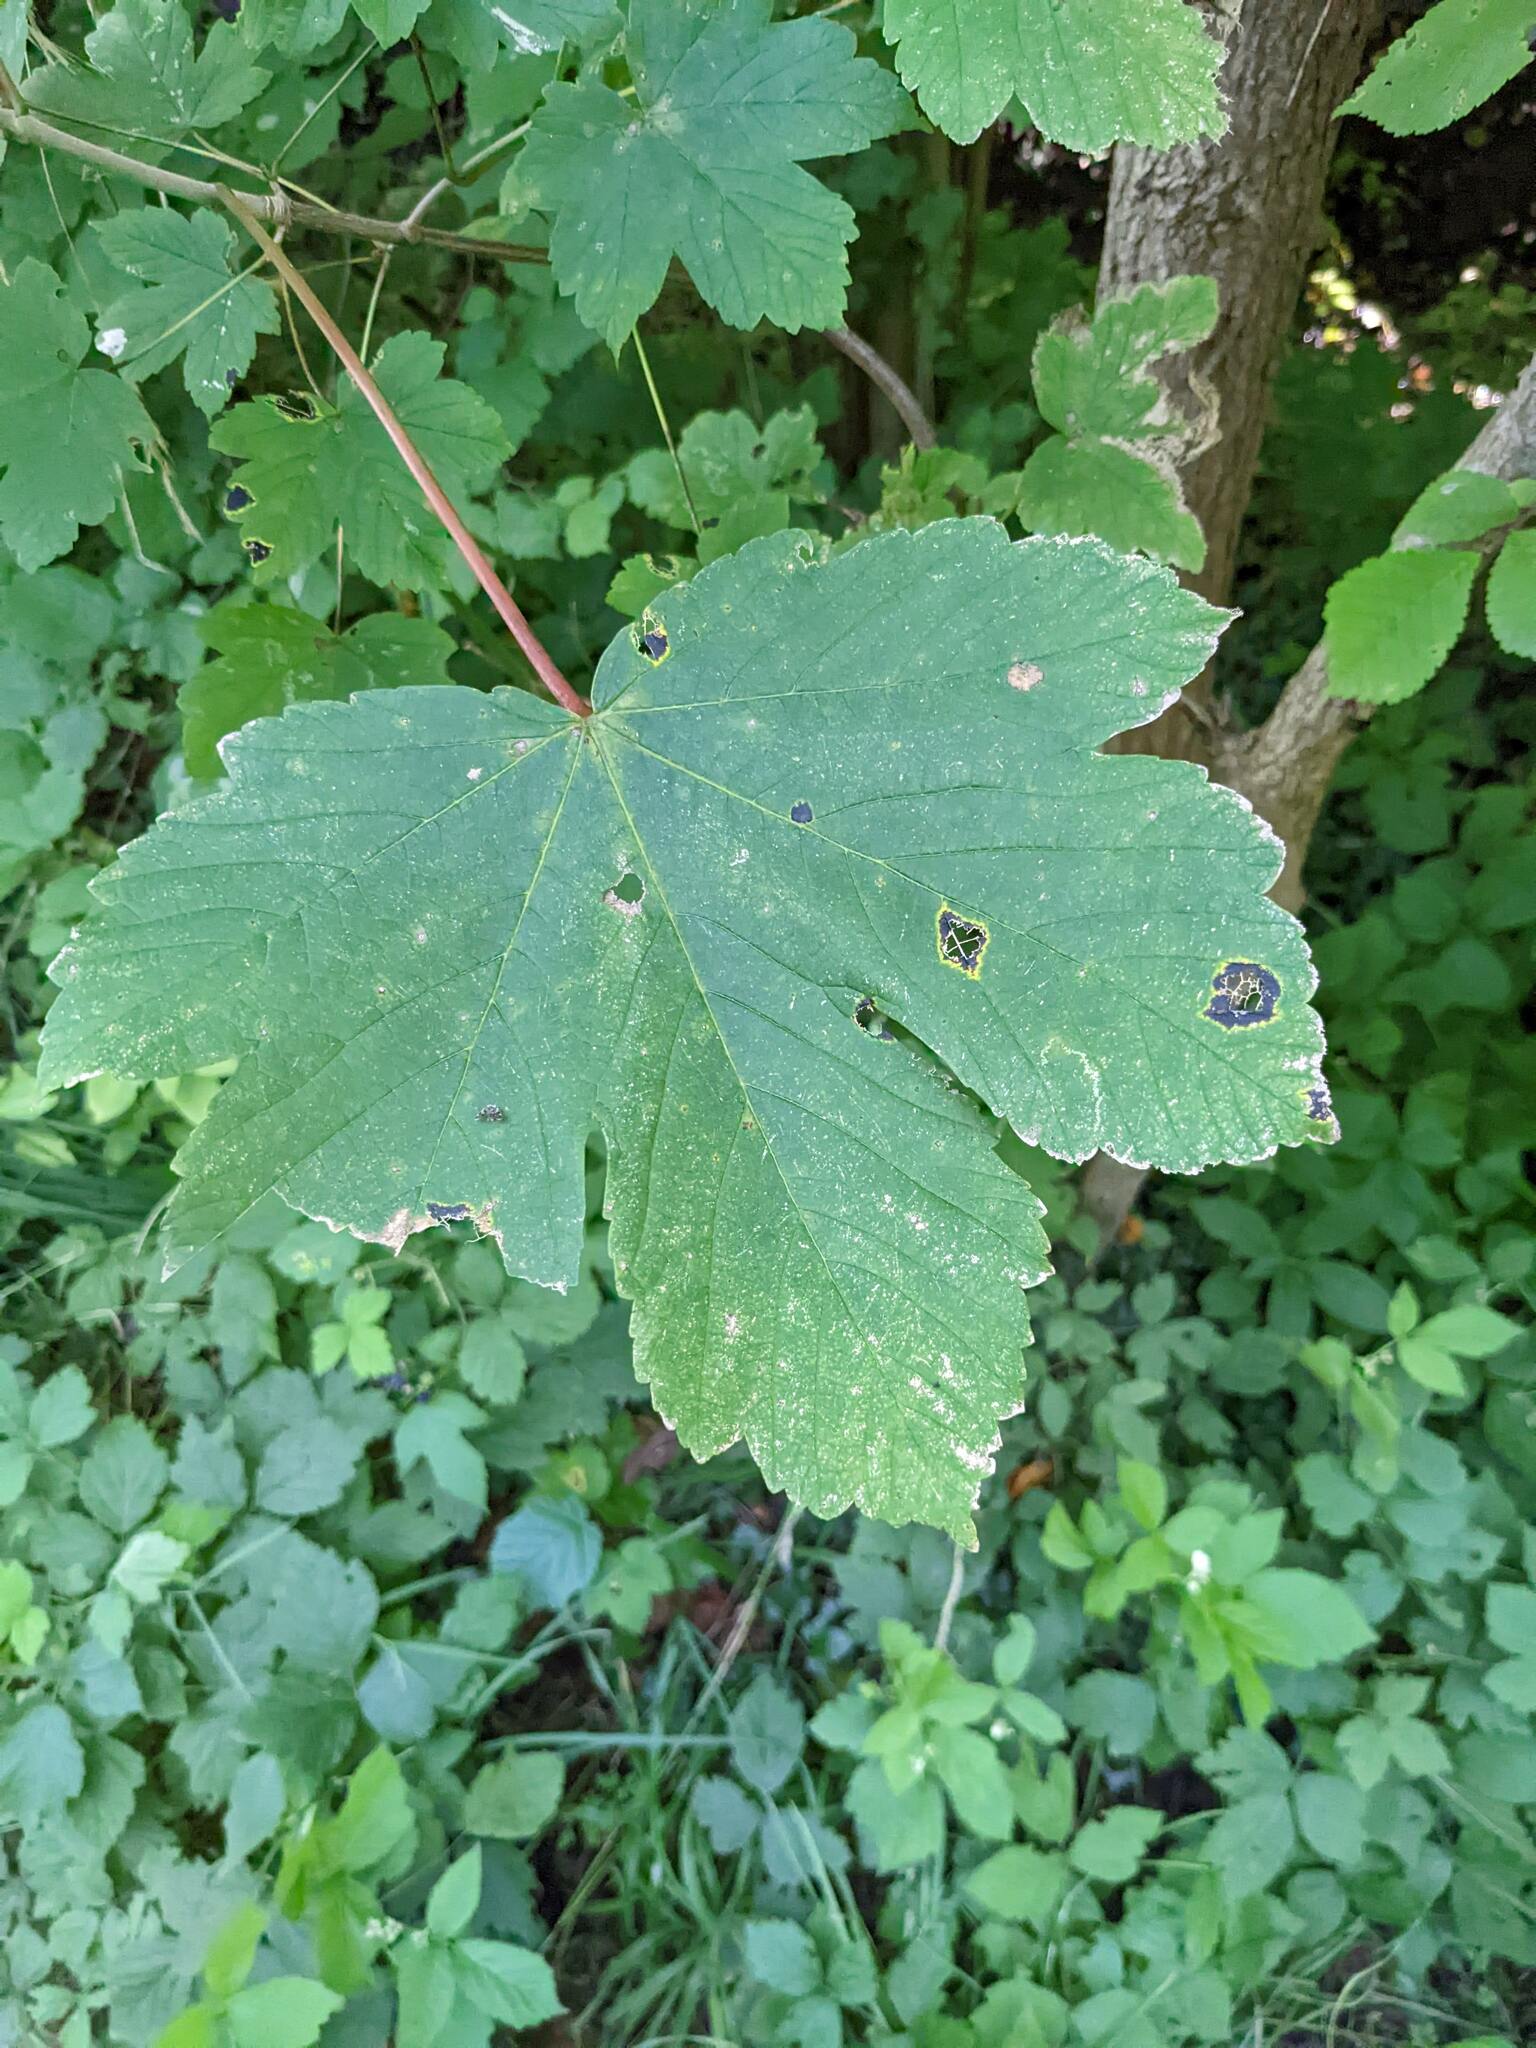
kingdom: Plantae
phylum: Tracheophyta
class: Magnoliopsida
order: Sapindales
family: Sapindaceae
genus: Acer
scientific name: Acer pseudoplatanus
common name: Sycamore
